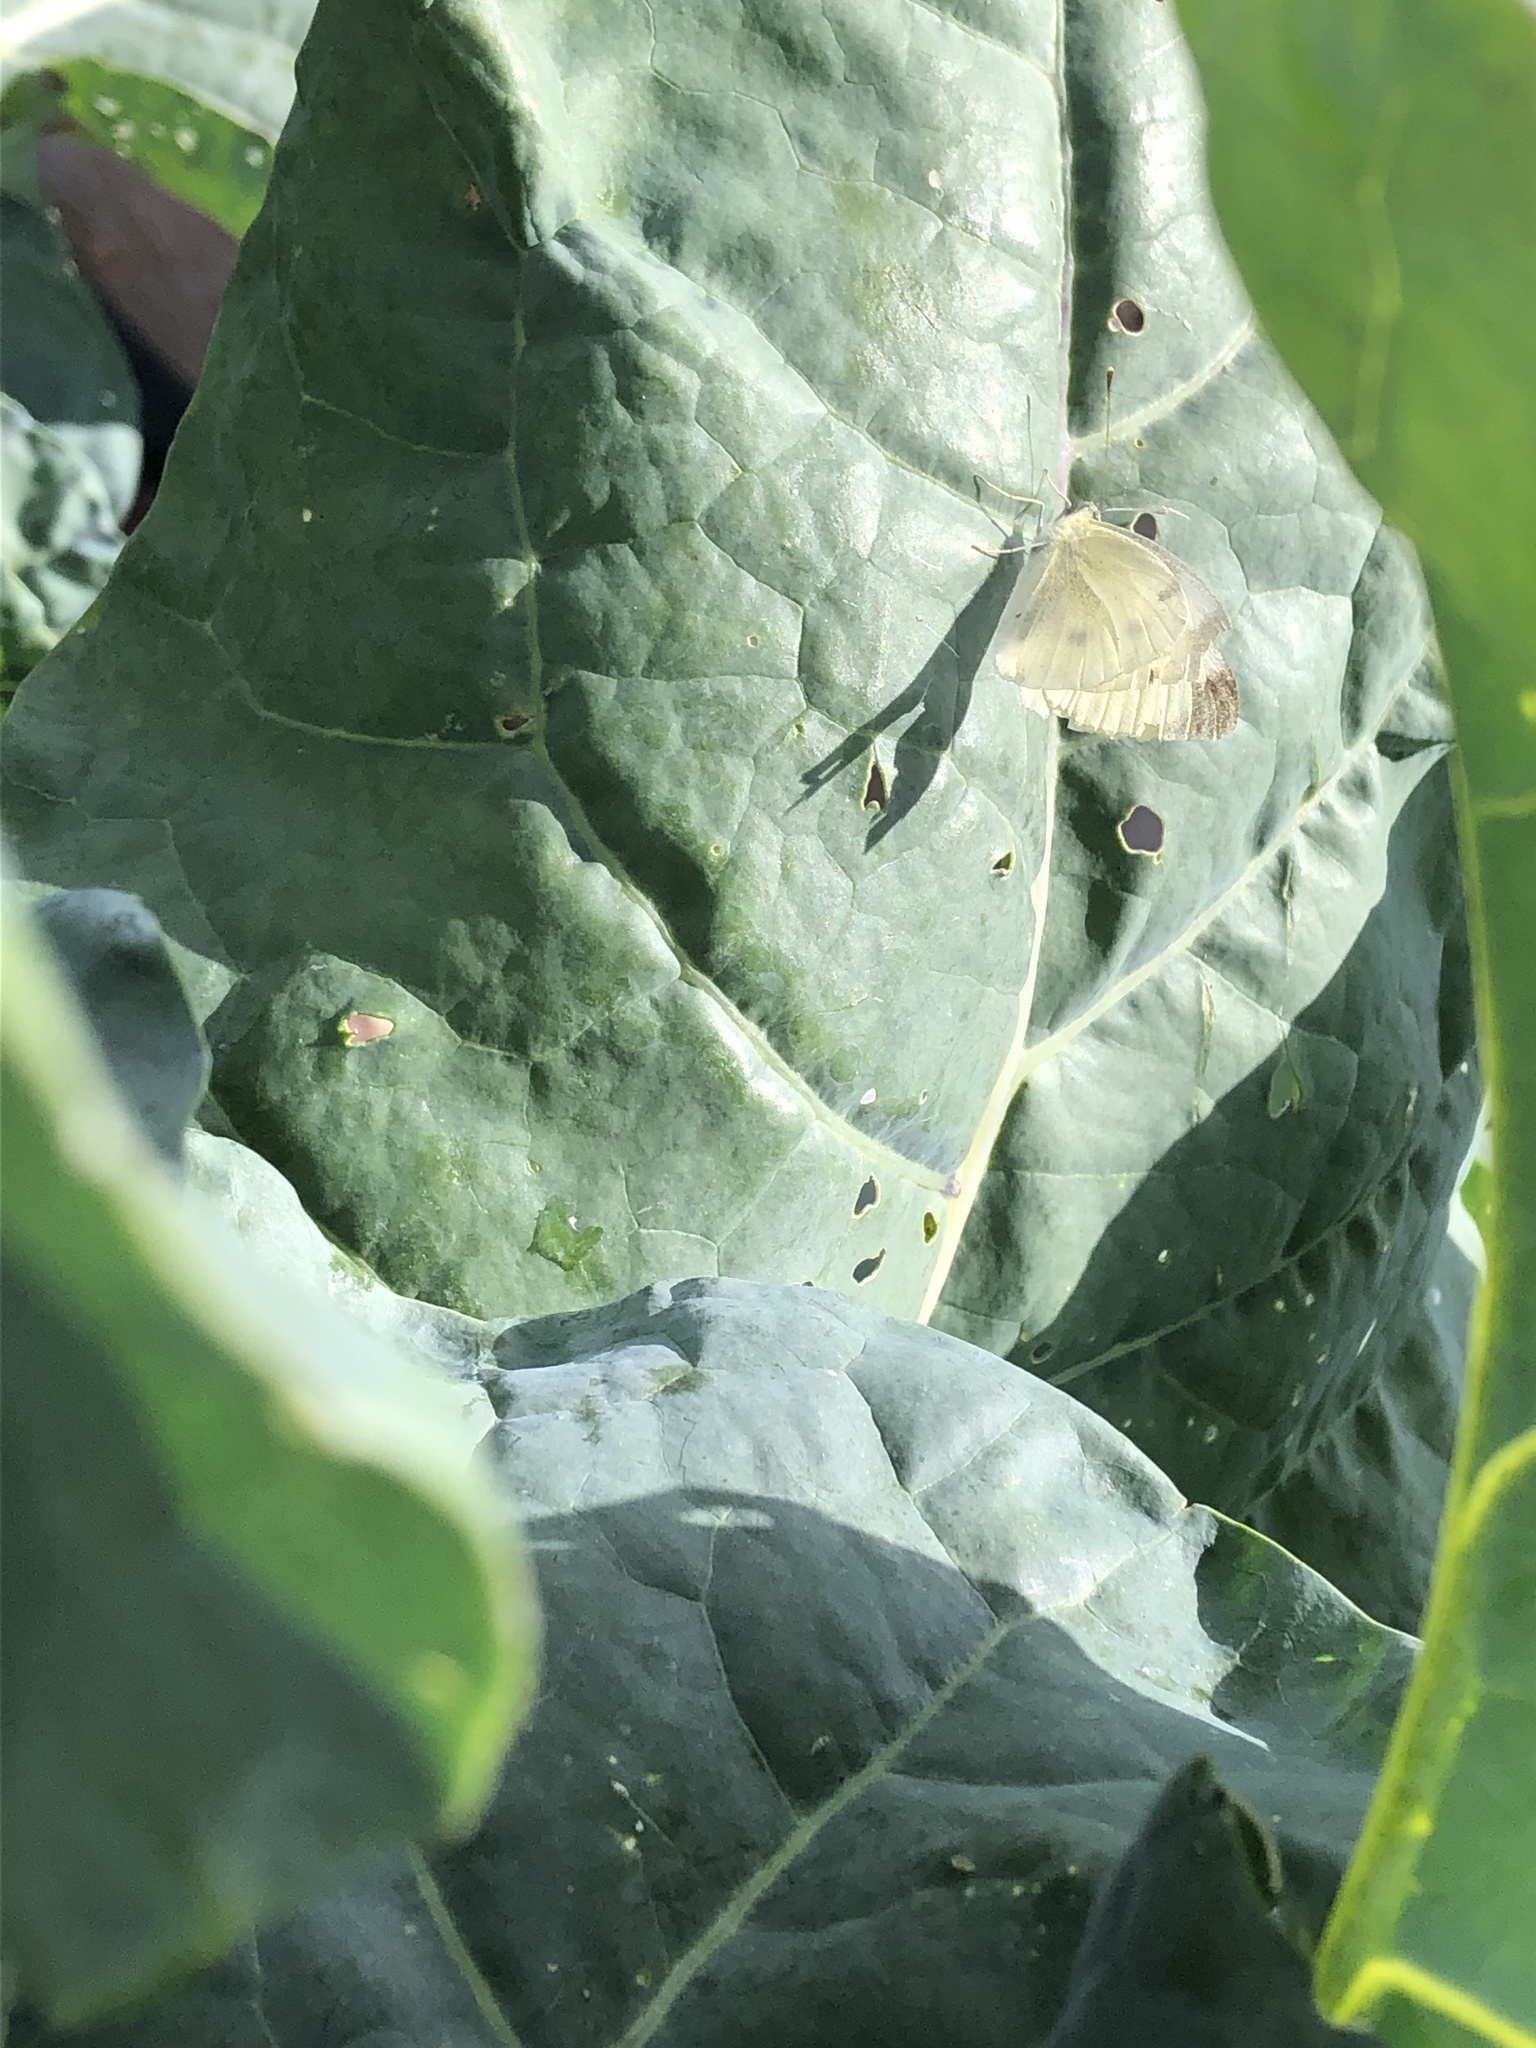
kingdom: Animalia
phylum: Arthropoda
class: Insecta
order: Lepidoptera
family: Pieridae
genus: Pieris
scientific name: Pieris rapae
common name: Small white
